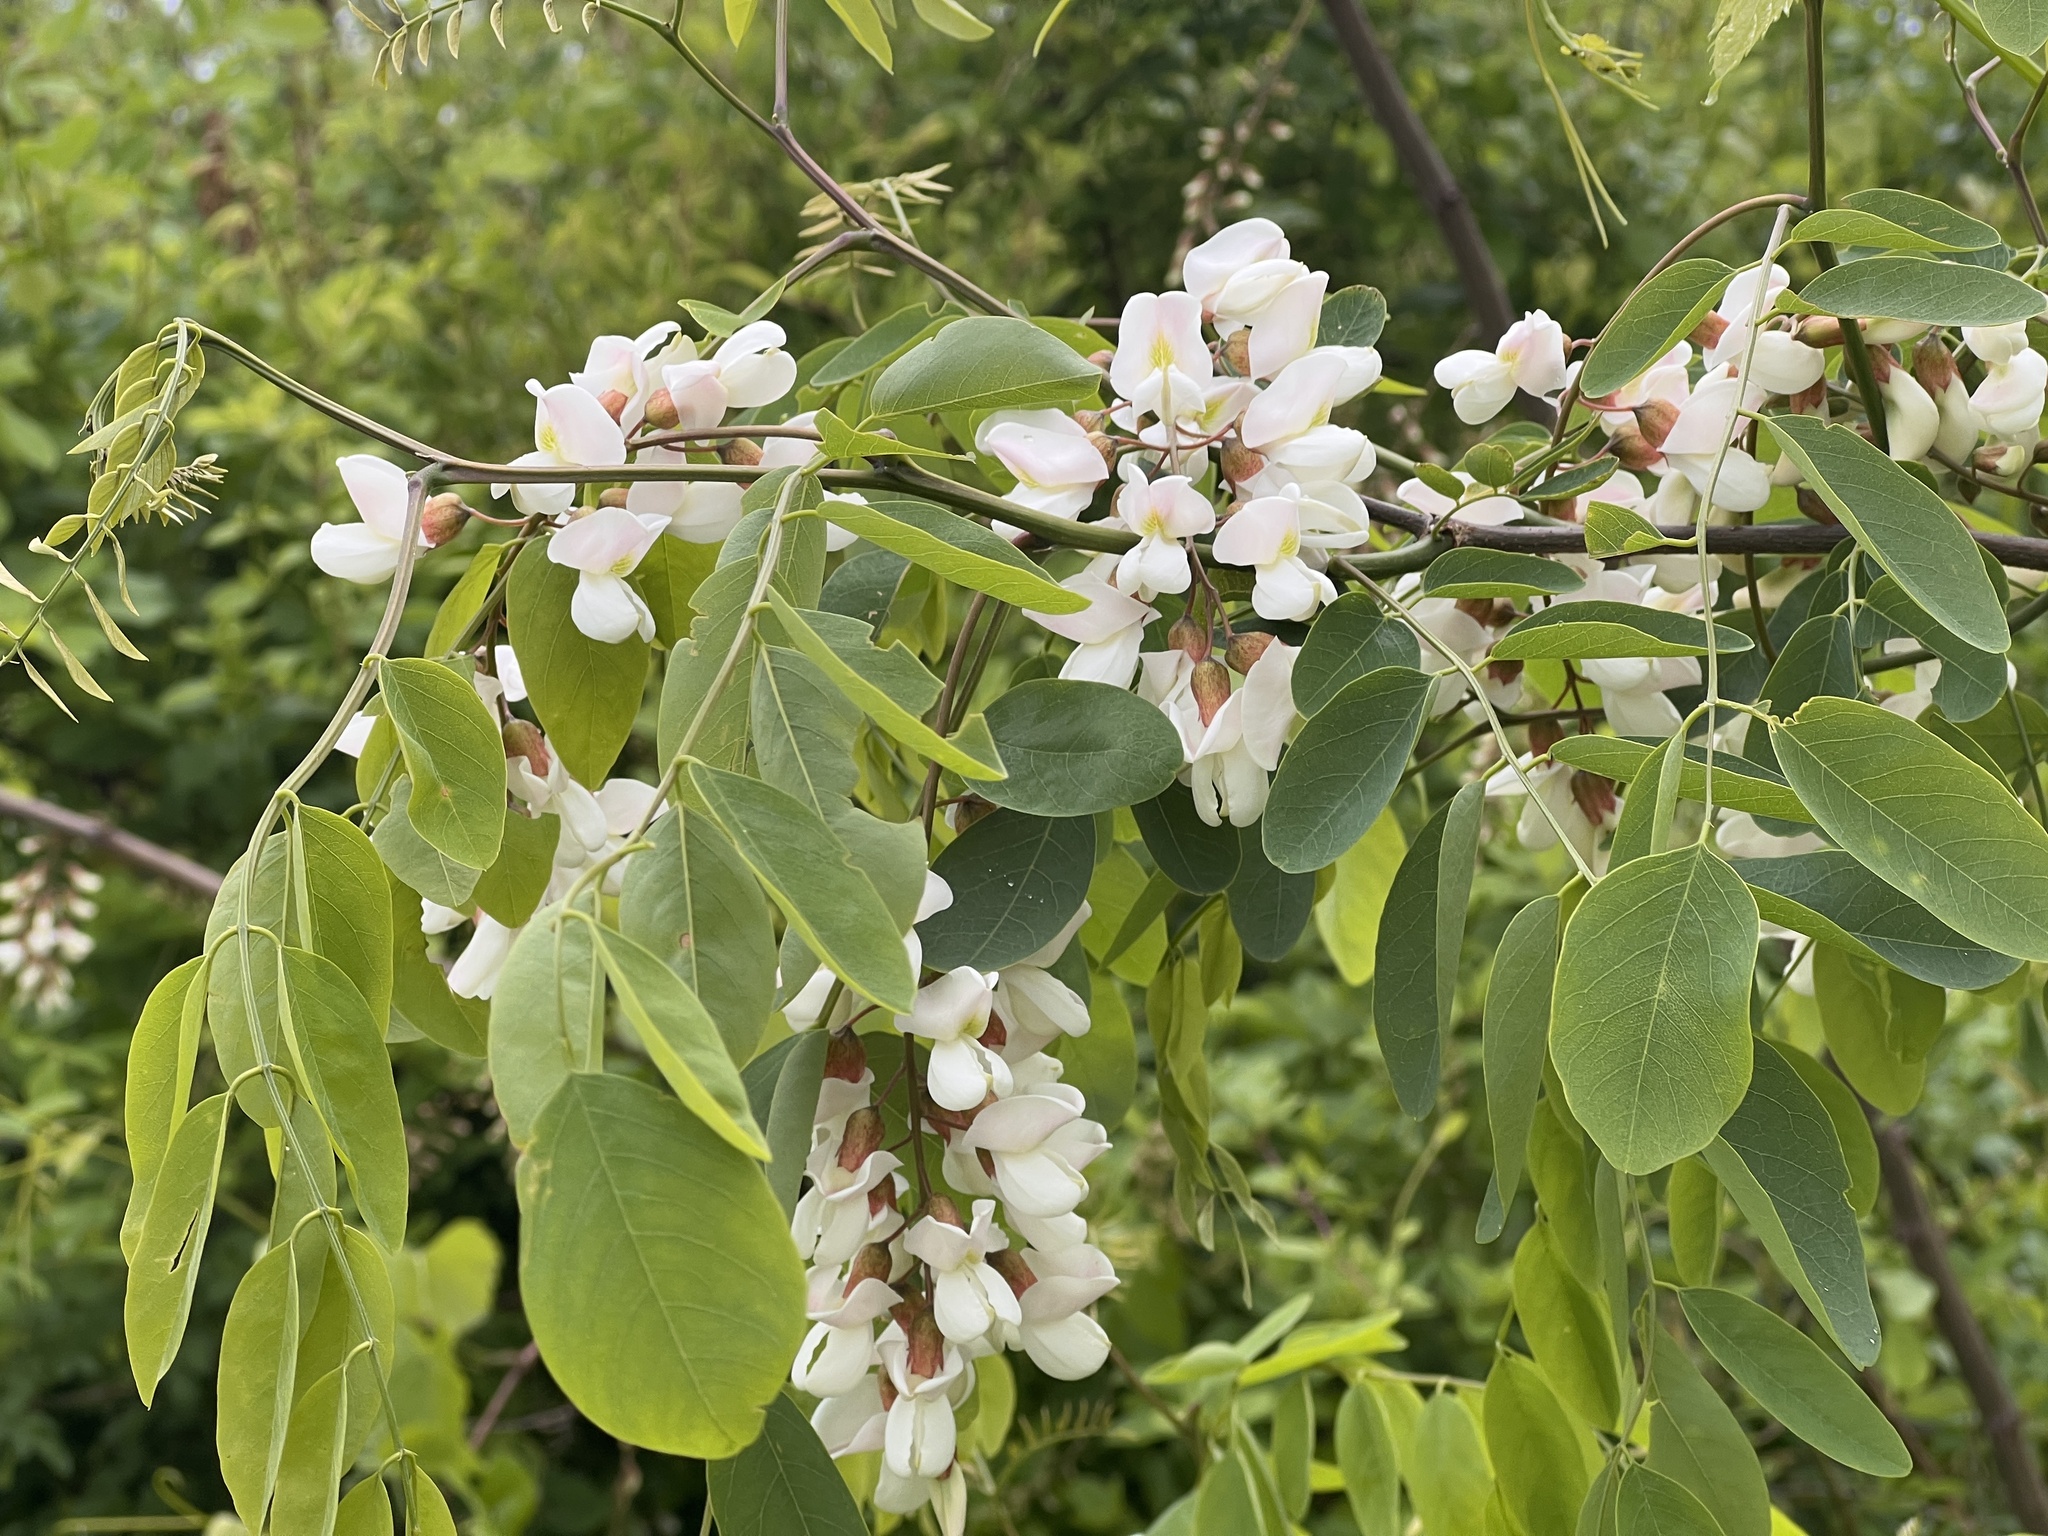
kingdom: Plantae
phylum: Tracheophyta
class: Magnoliopsida
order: Fabales
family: Fabaceae
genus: Robinia
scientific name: Robinia pseudoacacia
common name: Black locust
